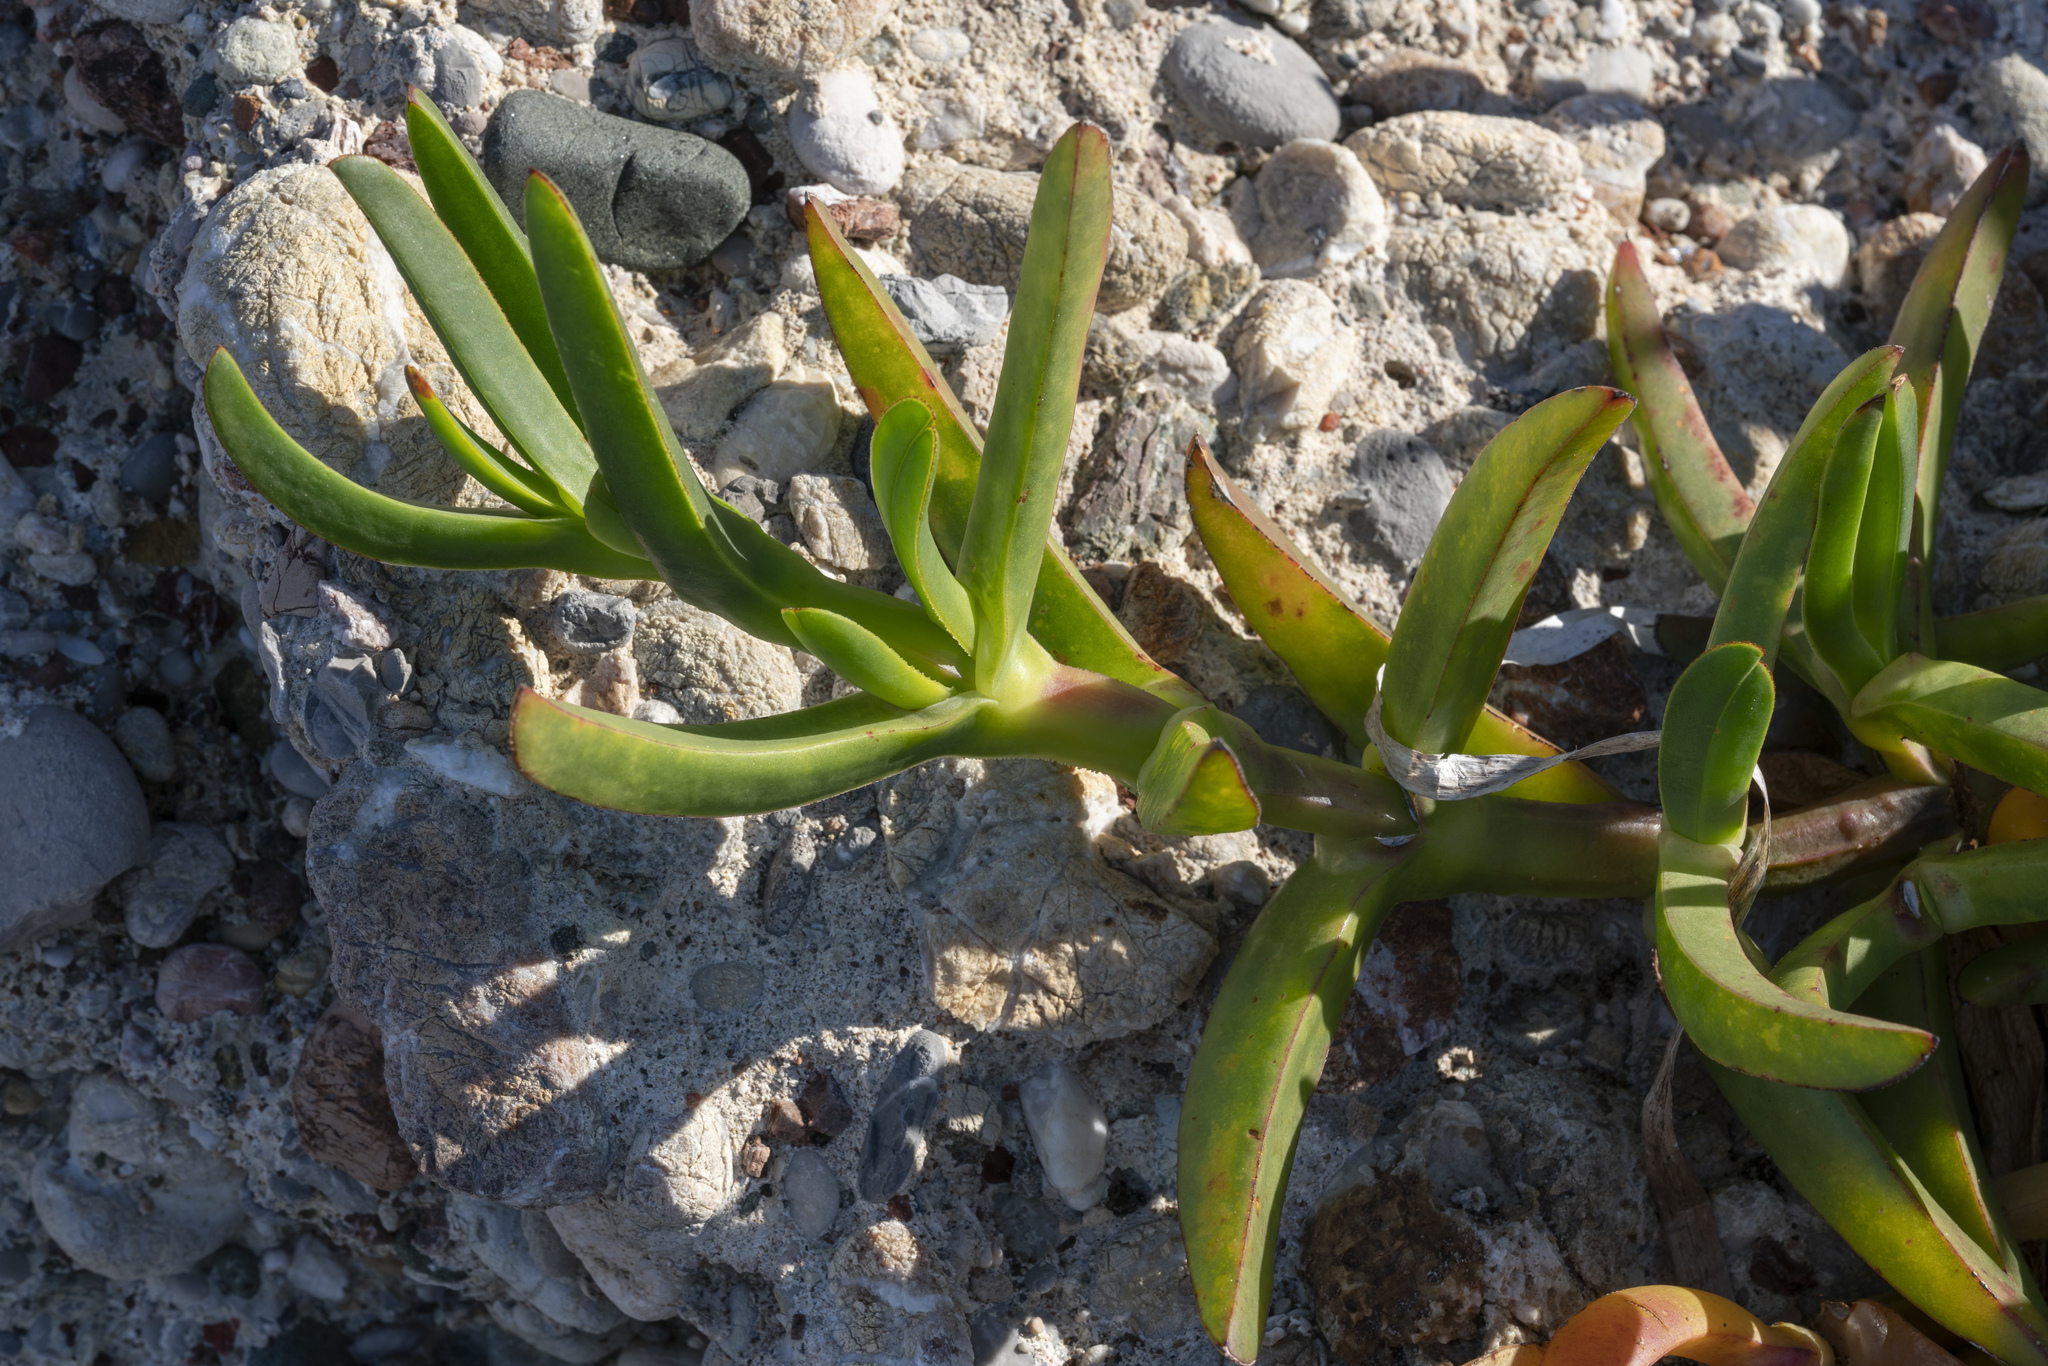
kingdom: Plantae
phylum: Tracheophyta
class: Magnoliopsida
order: Caryophyllales
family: Aizoaceae
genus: Carpobrotus
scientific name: Carpobrotus edulis
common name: Hottentot-fig
